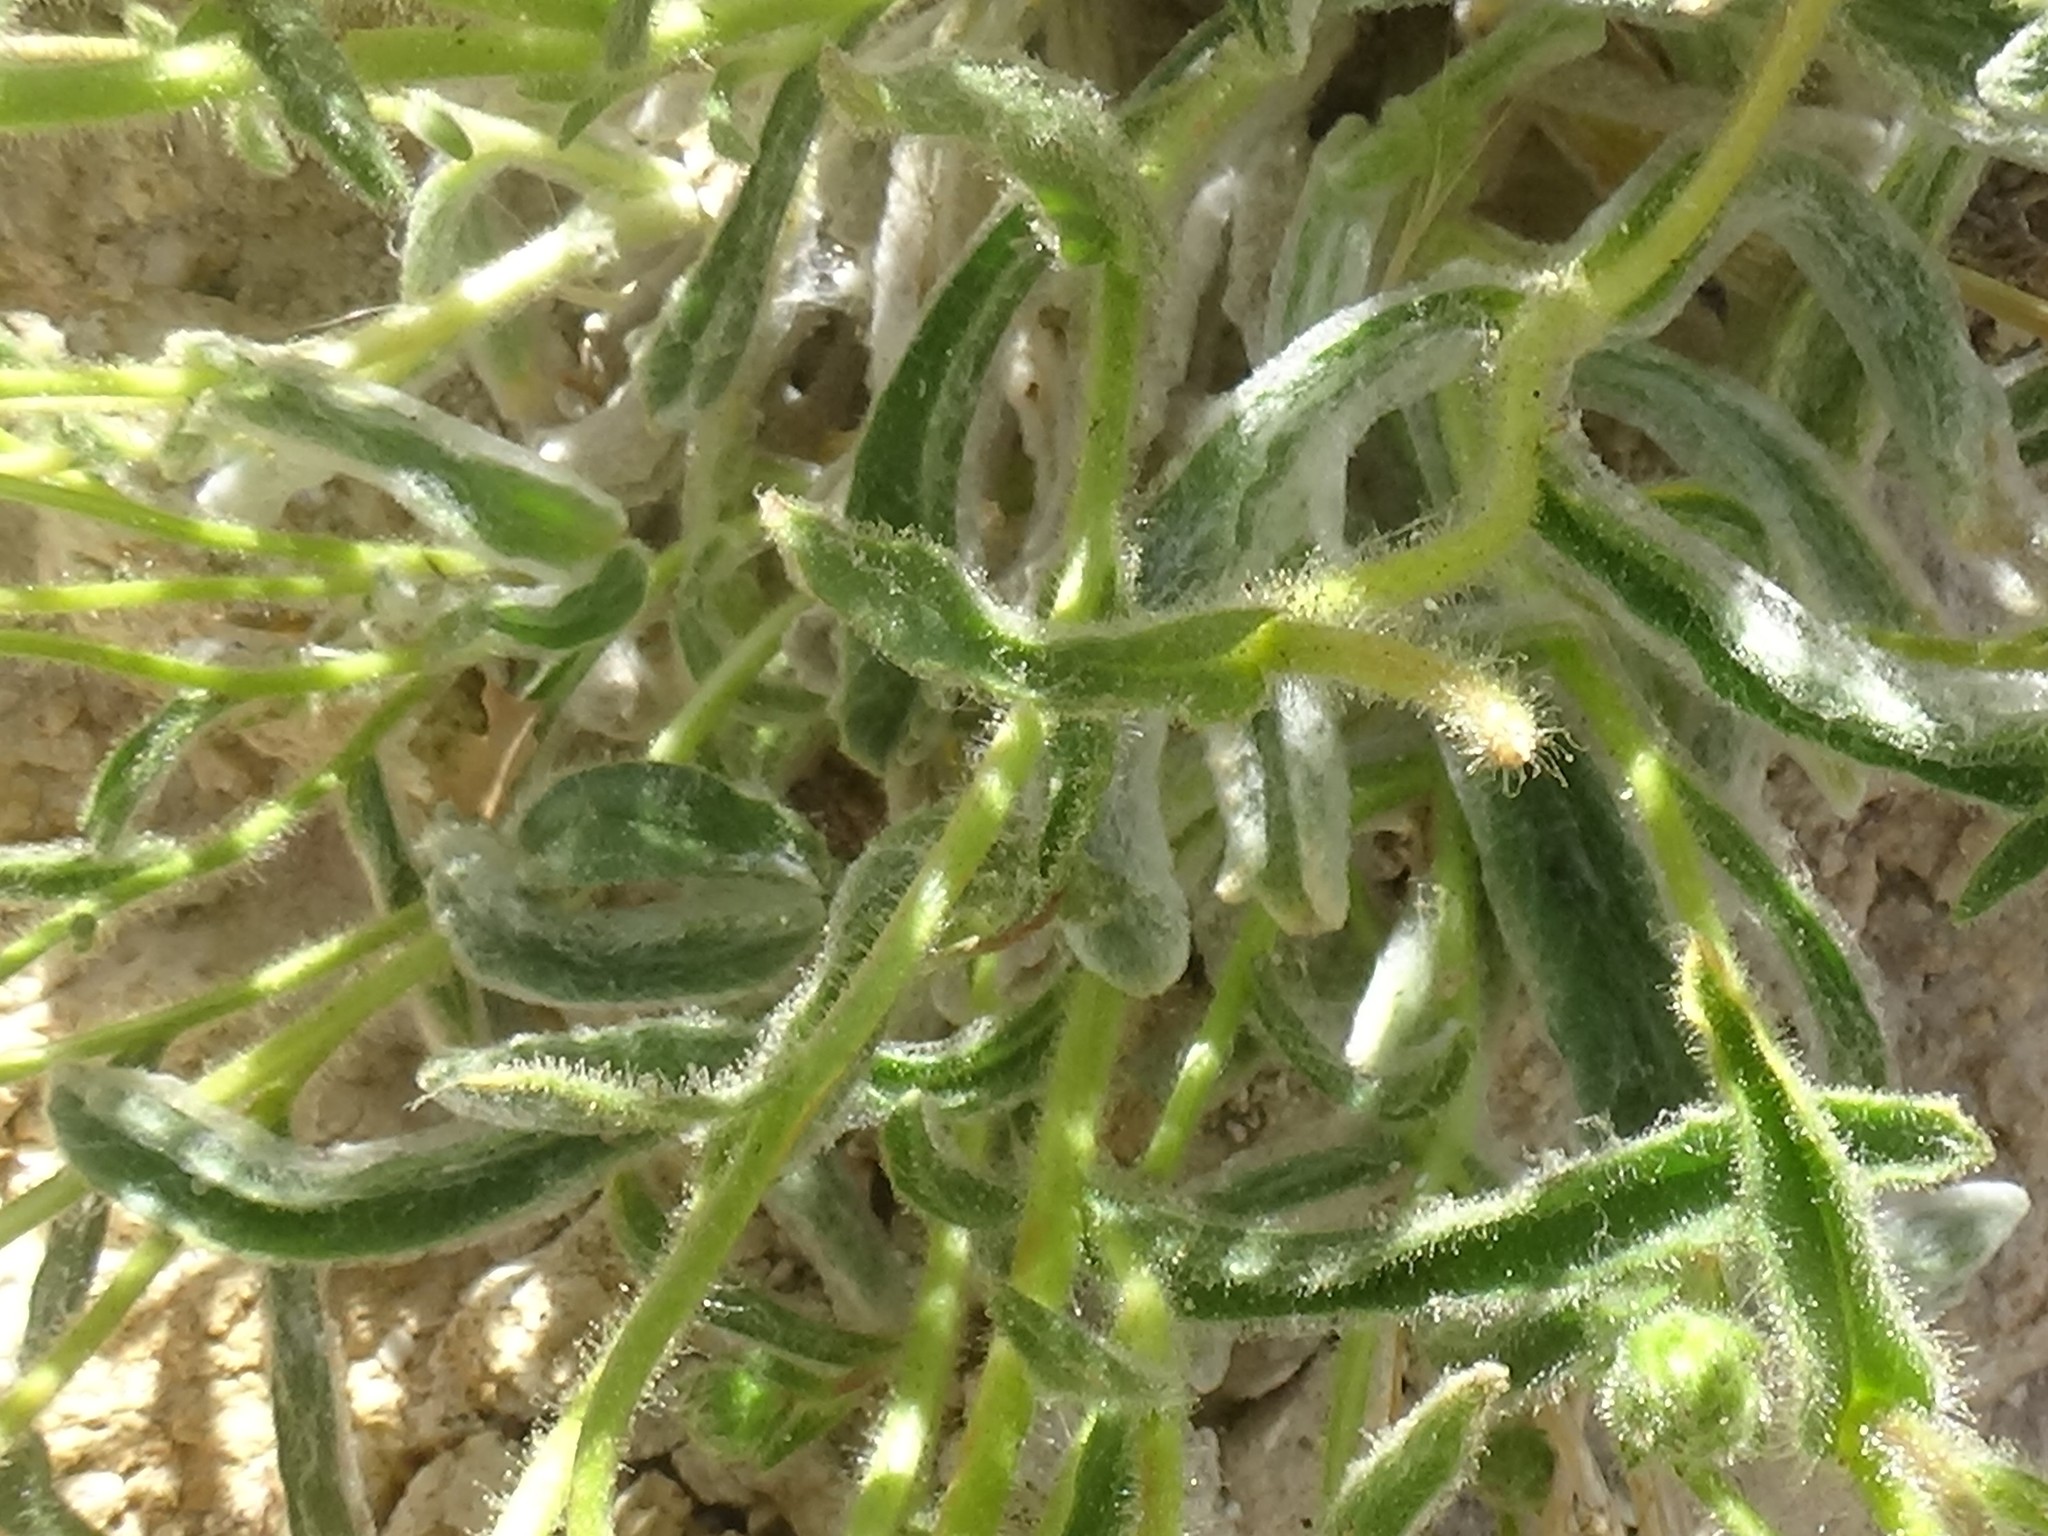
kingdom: Plantae
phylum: Tracheophyta
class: Magnoliopsida
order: Asterales
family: Asteraceae
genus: Hulsea
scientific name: Hulsea vestita
